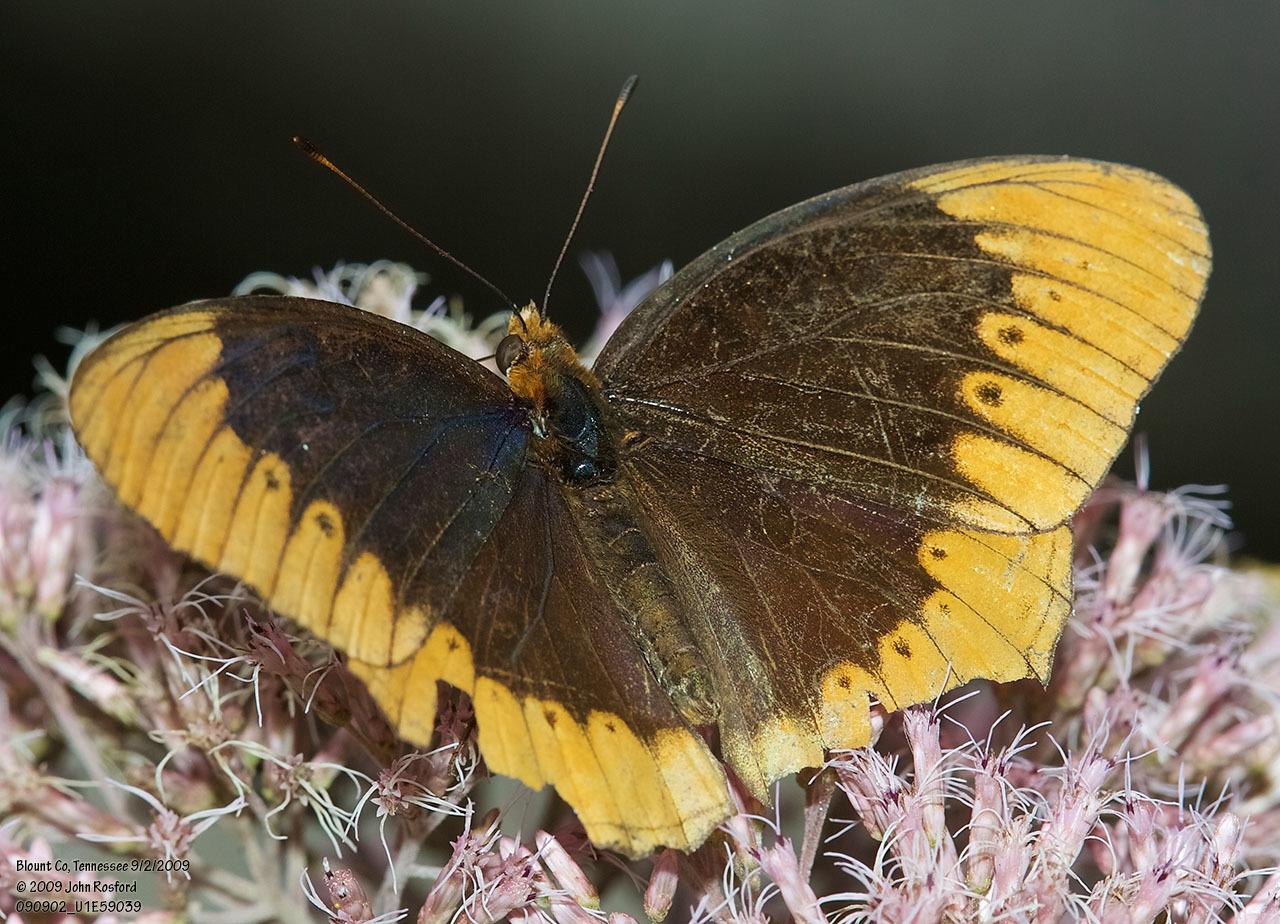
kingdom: Animalia
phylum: Arthropoda
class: Insecta
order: Lepidoptera
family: Nymphalidae
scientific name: Nymphalidae
